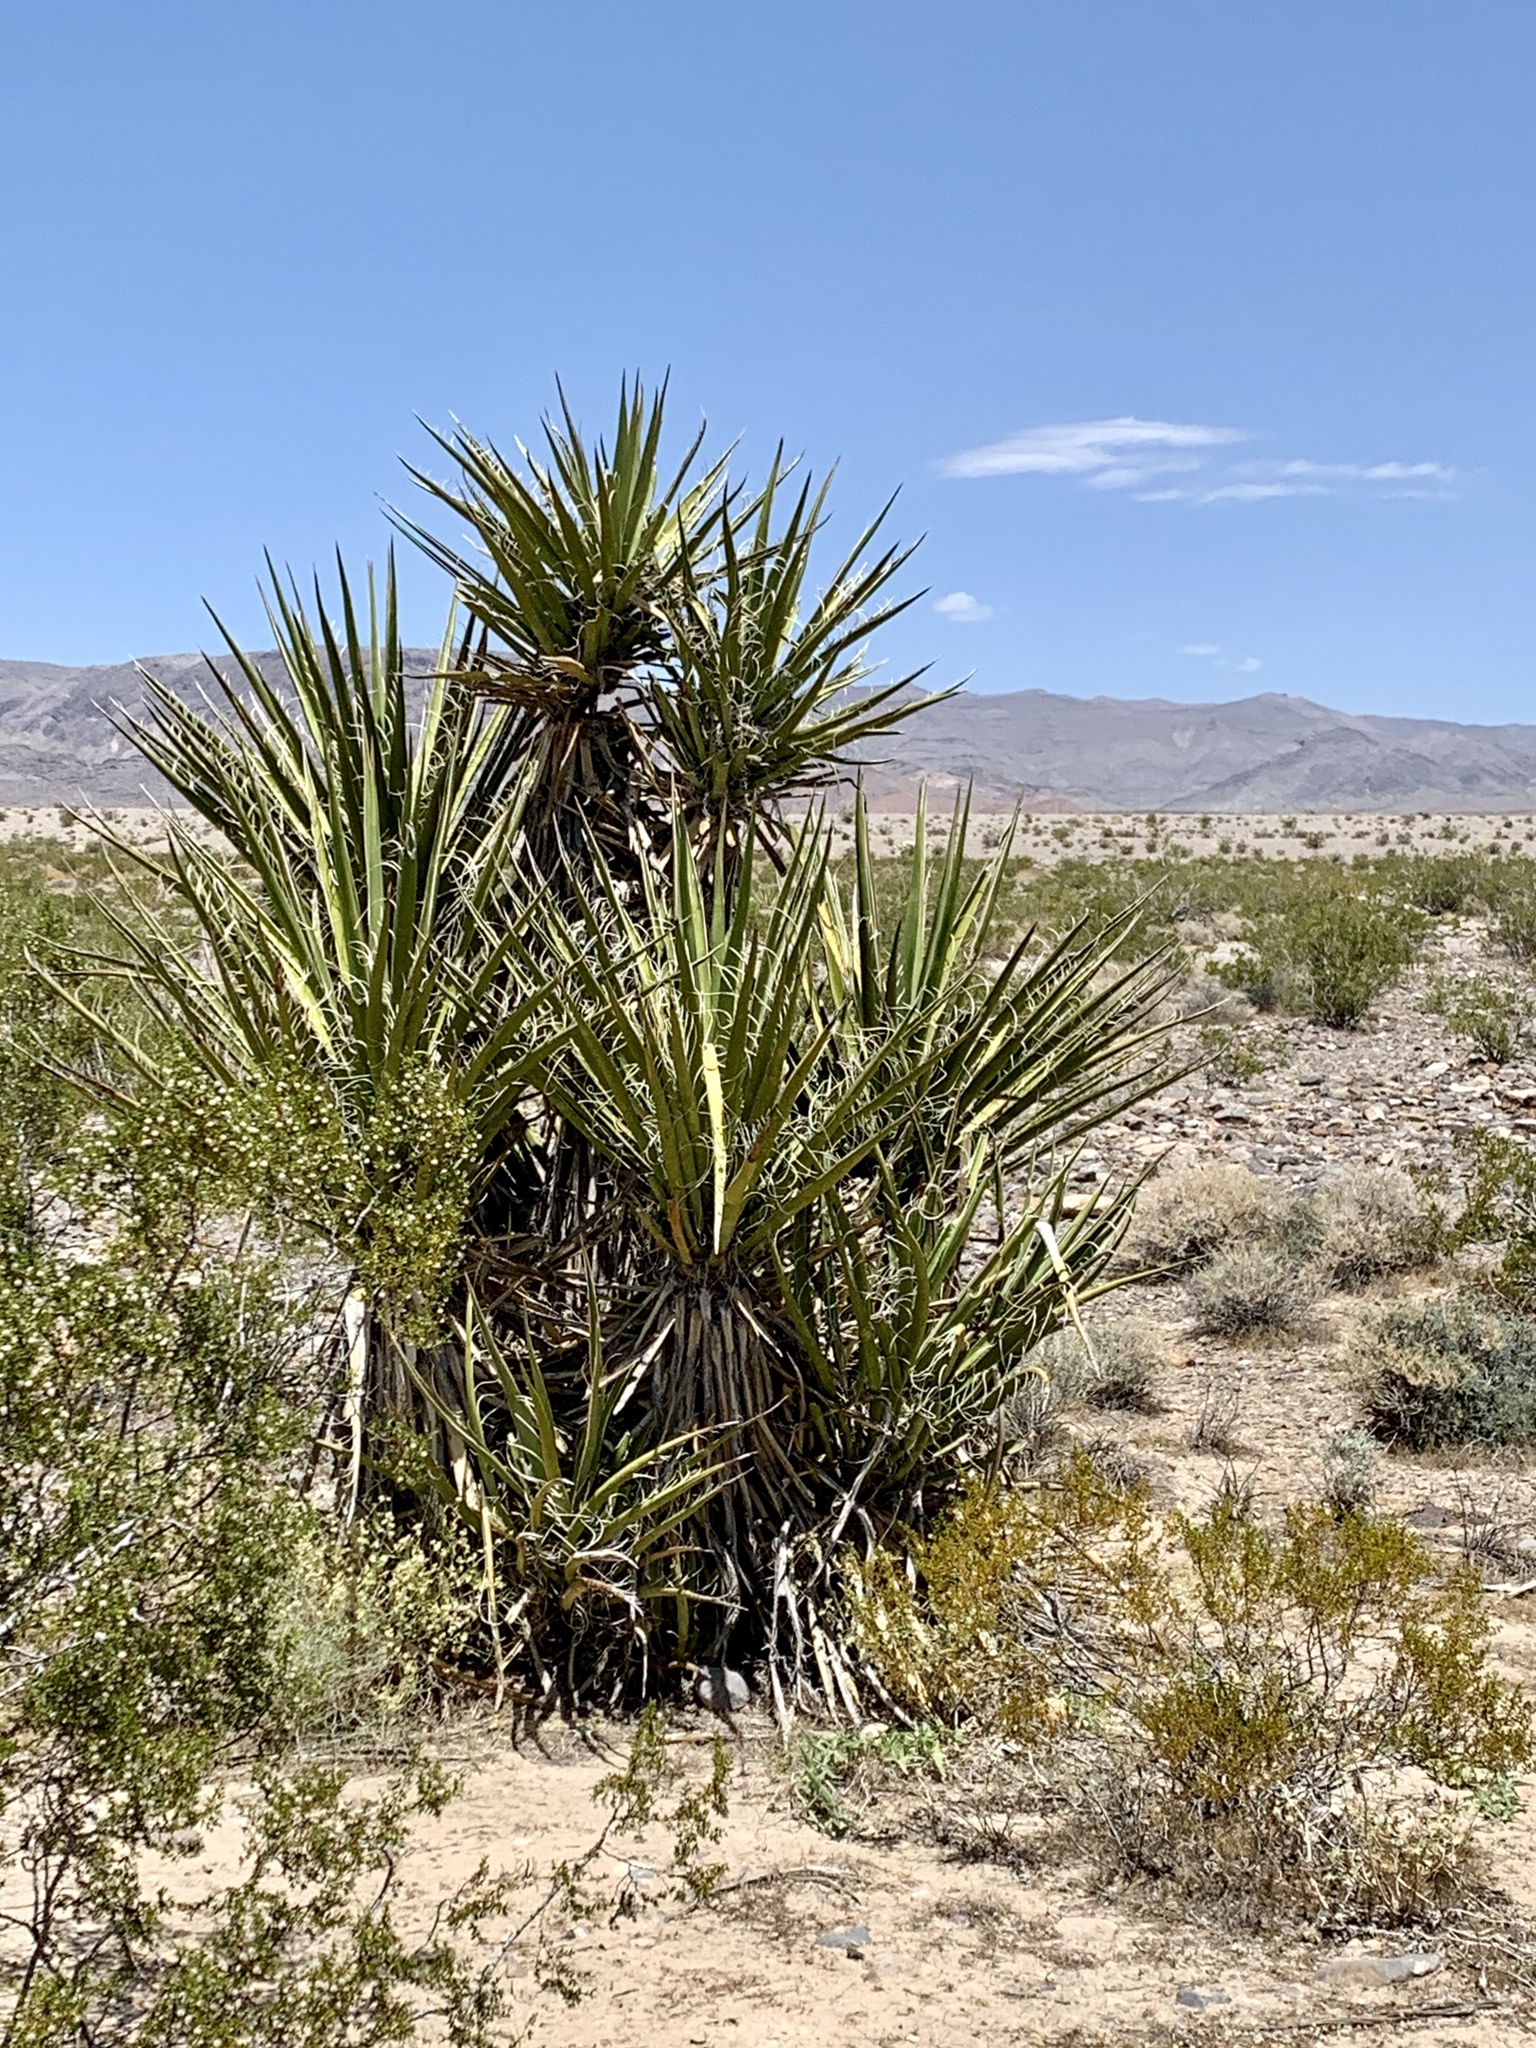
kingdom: Plantae
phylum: Tracheophyta
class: Liliopsida
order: Asparagales
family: Asparagaceae
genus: Yucca
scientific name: Yucca schidigera
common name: Mojave yucca
